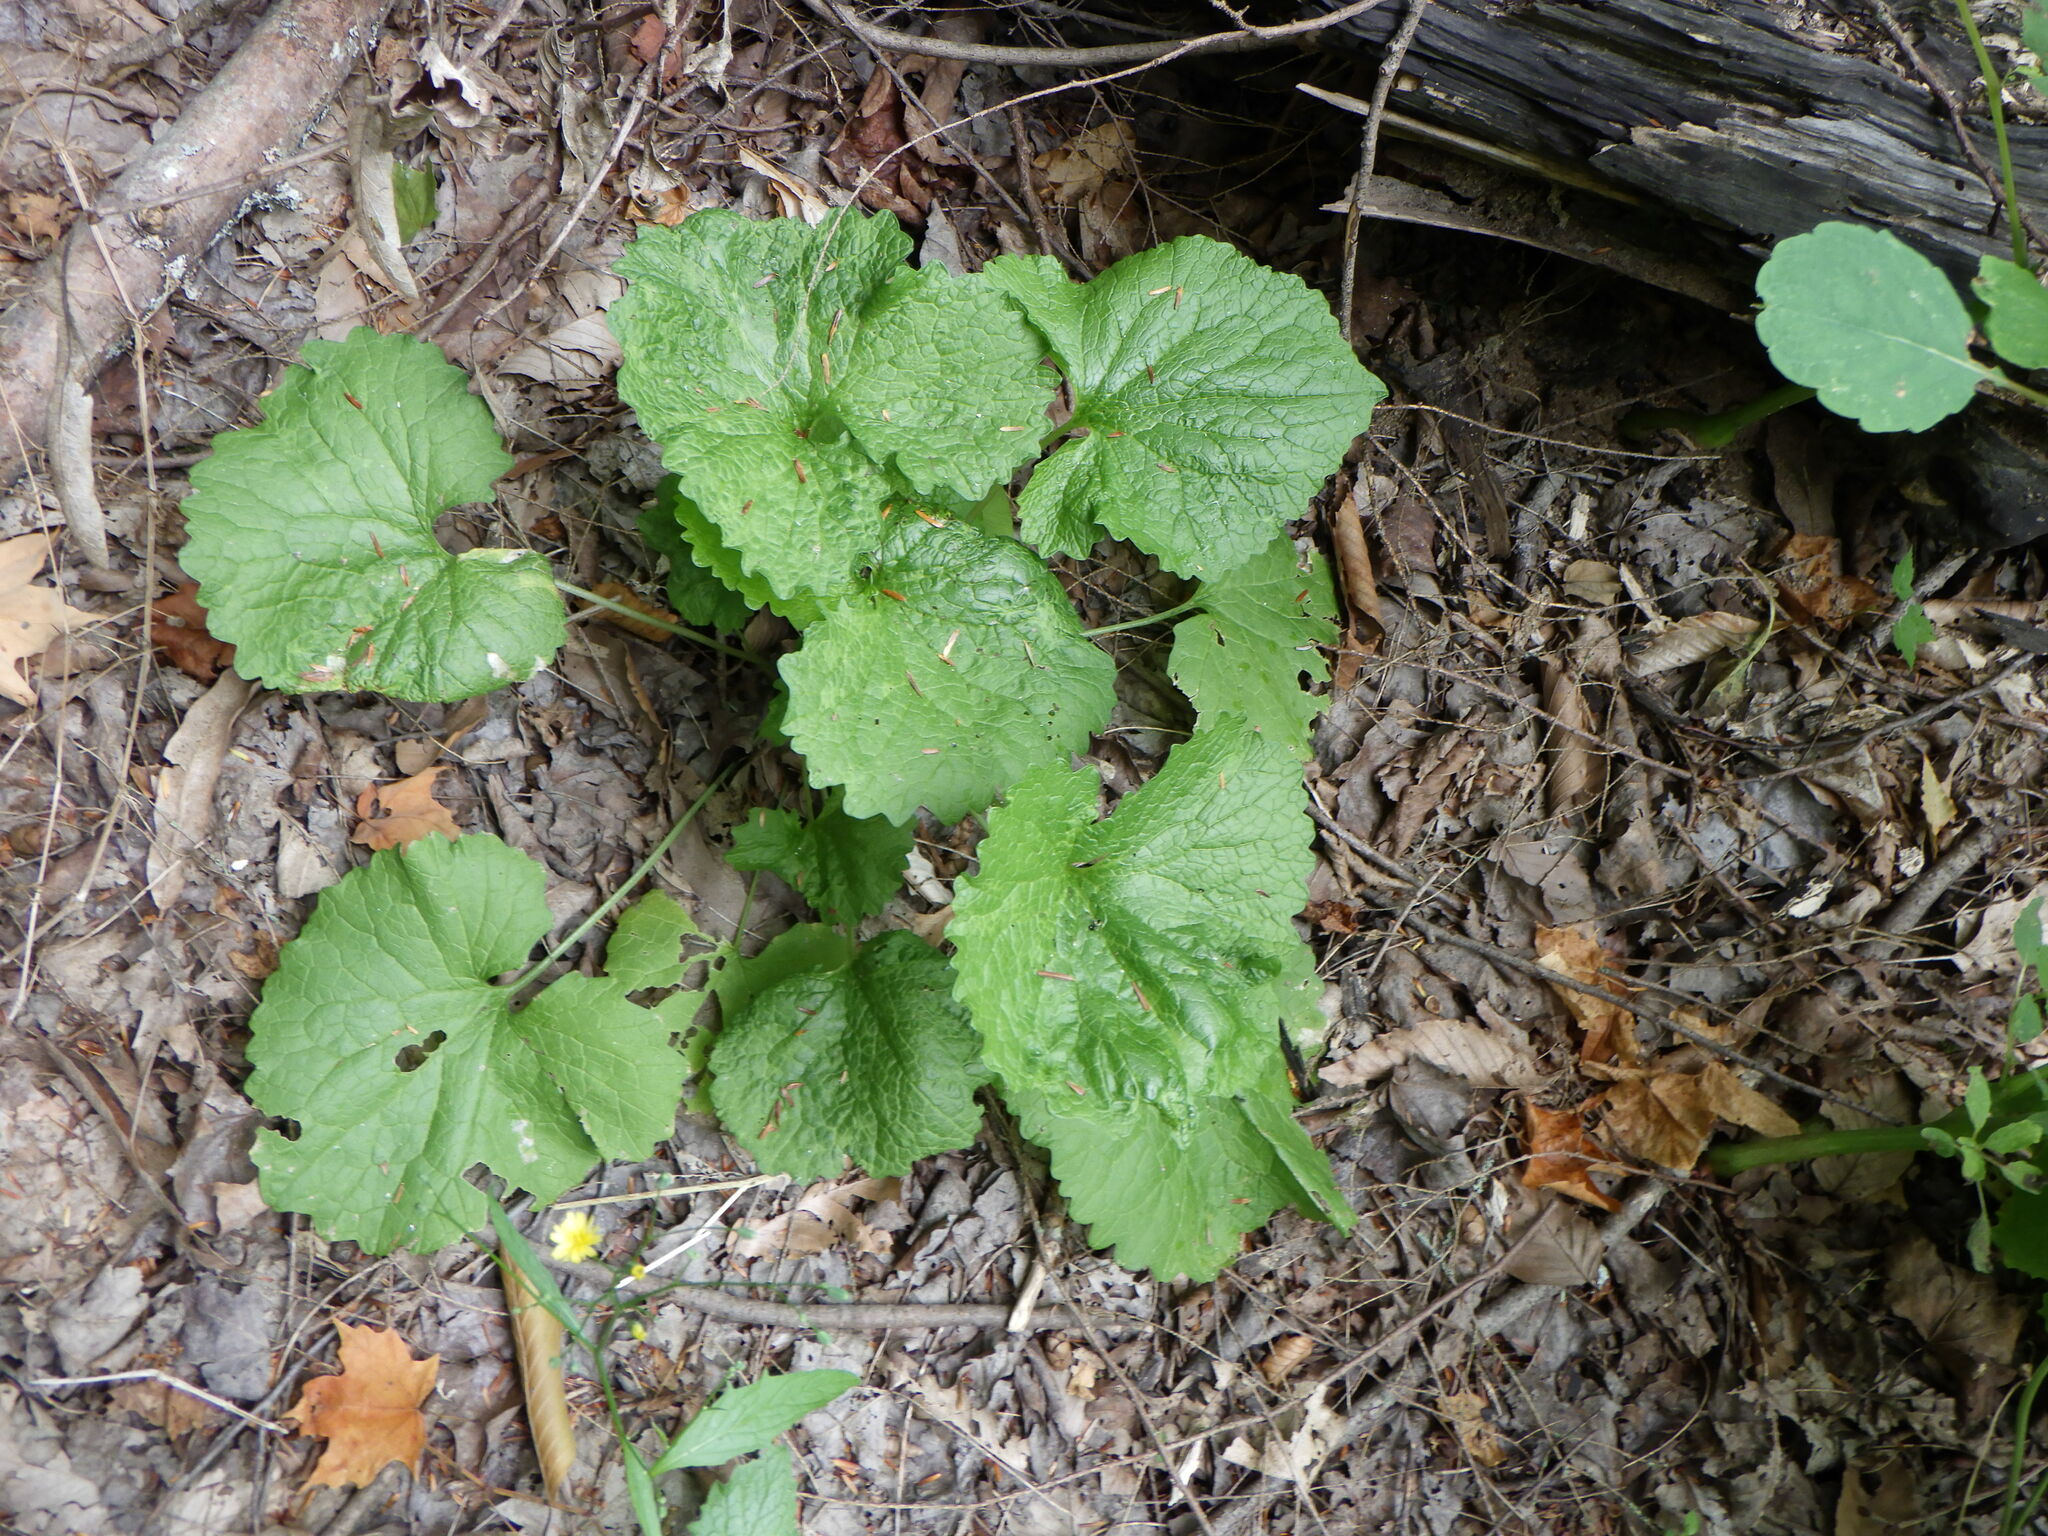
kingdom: Plantae
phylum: Tracheophyta
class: Magnoliopsida
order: Brassicales
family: Brassicaceae
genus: Alliaria
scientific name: Alliaria petiolata
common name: Garlic mustard
